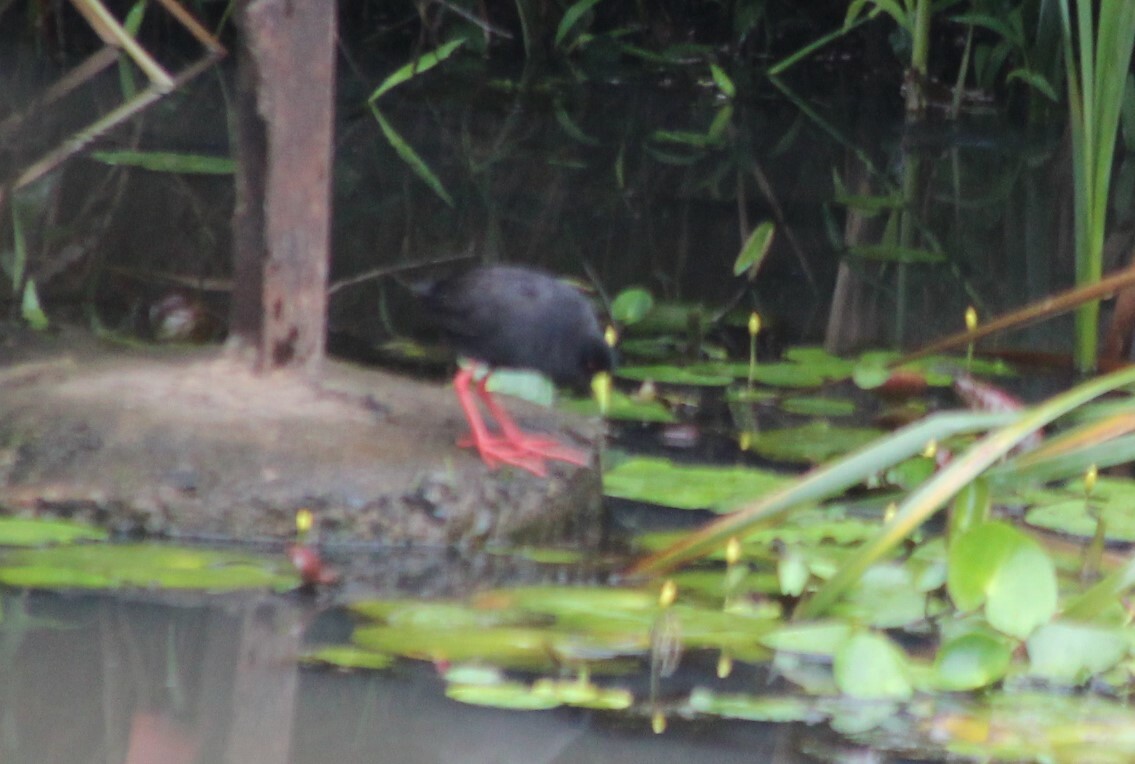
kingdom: Animalia
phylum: Chordata
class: Aves
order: Gruiformes
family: Rallidae
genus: Amaurornis
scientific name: Amaurornis flavirostra
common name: Black crake
